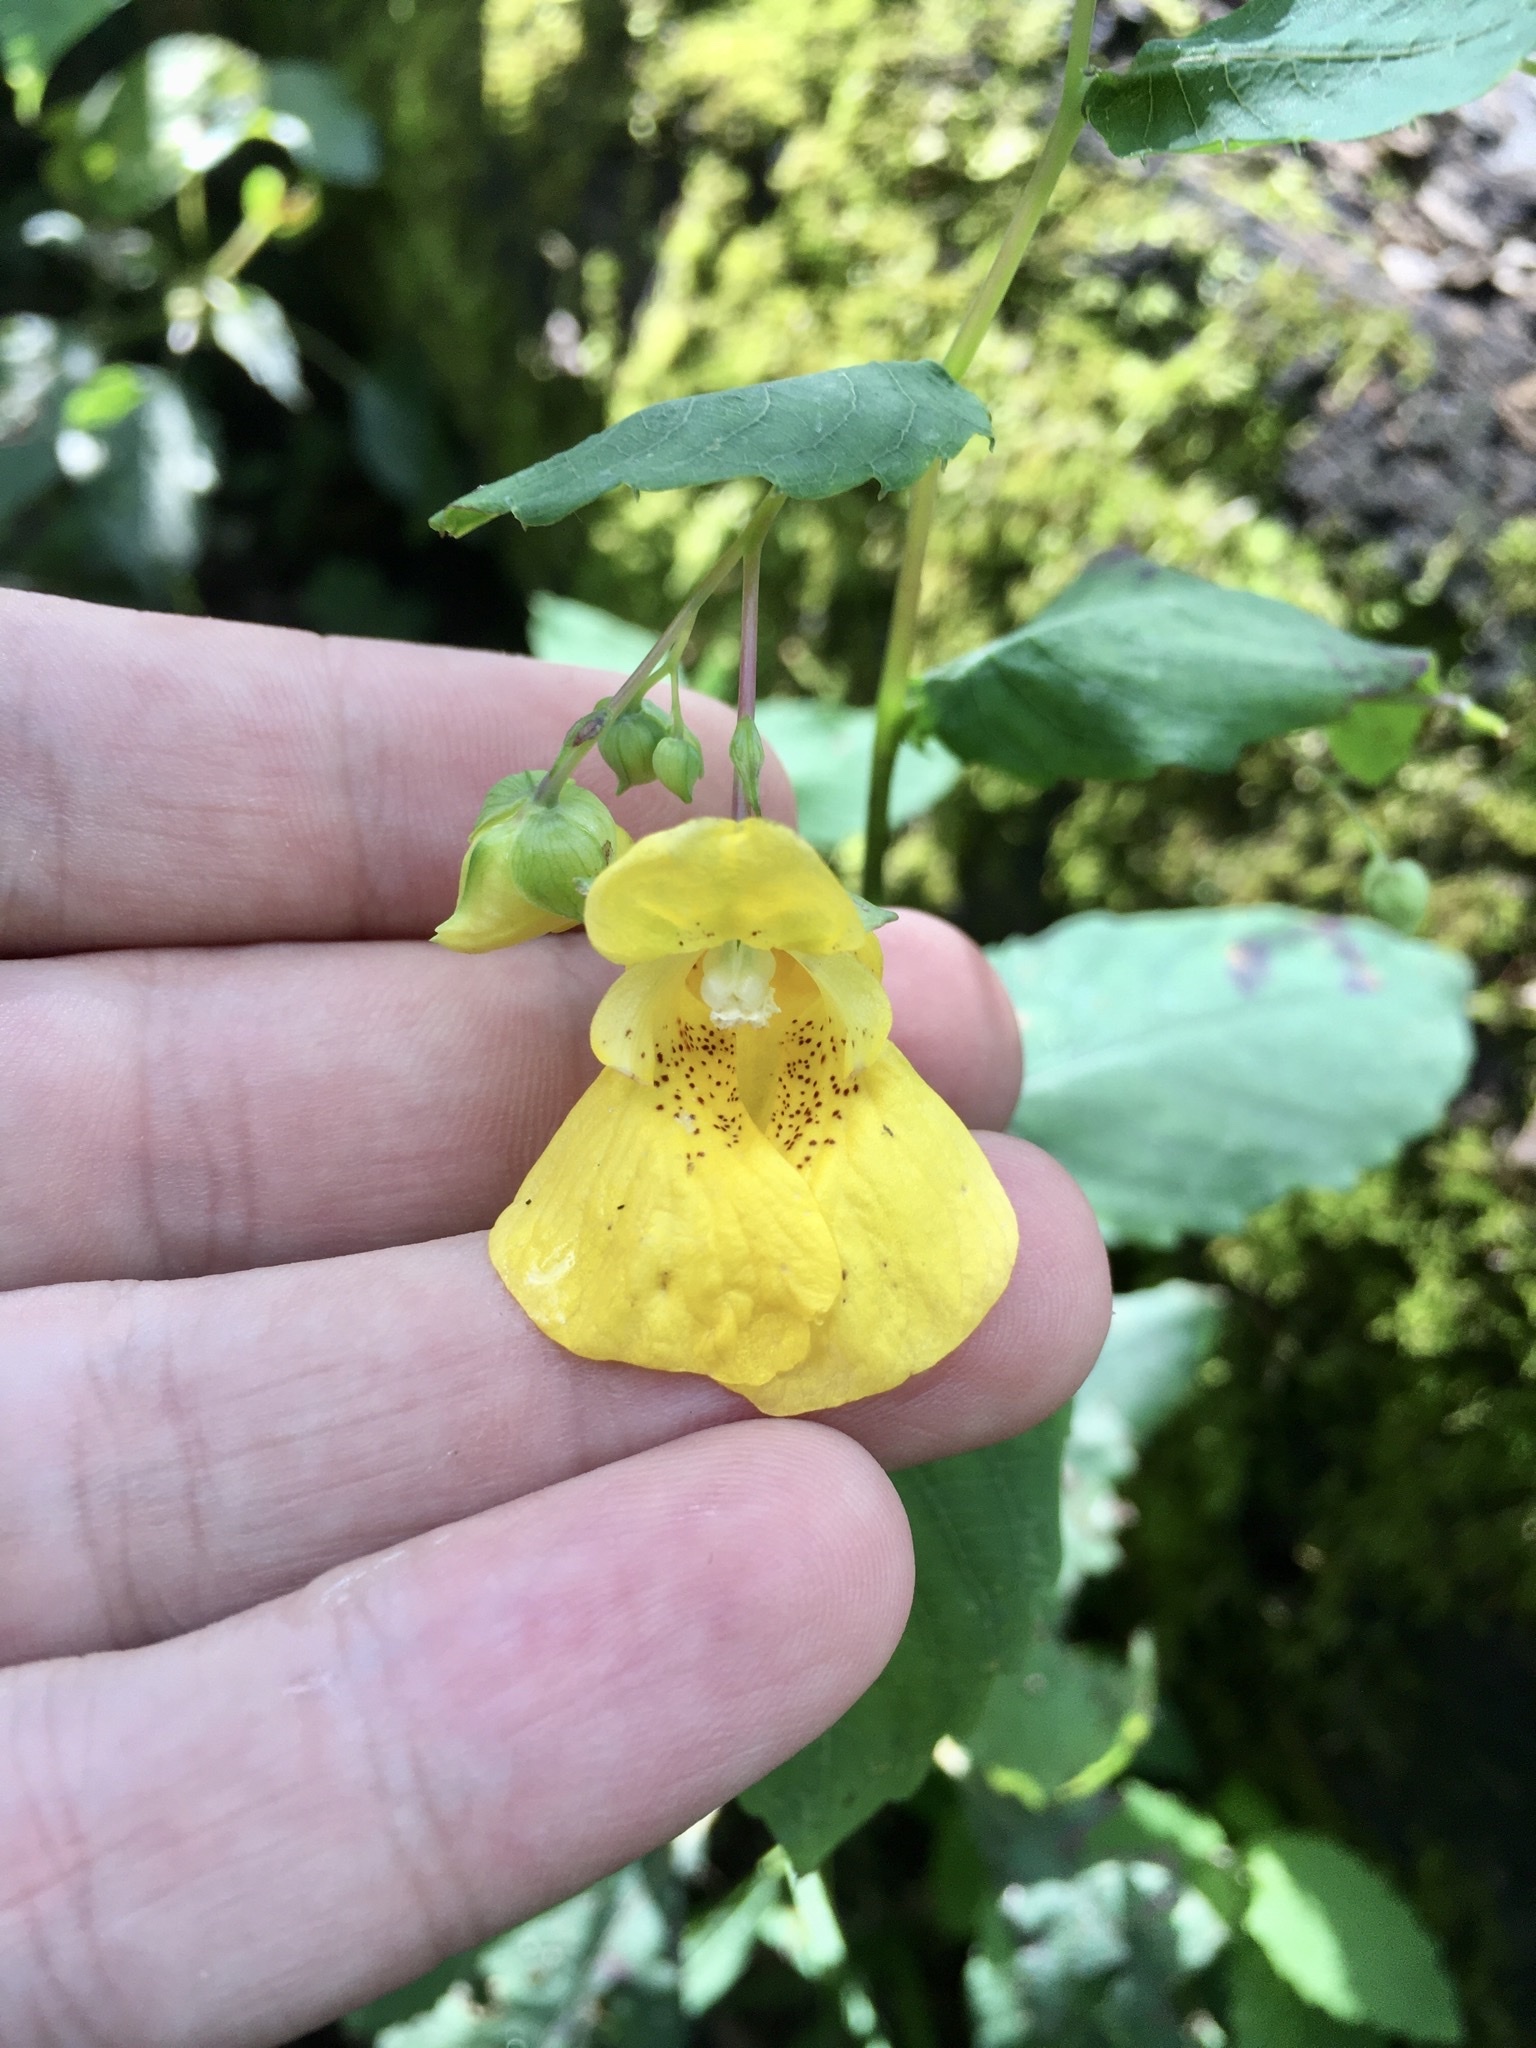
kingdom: Plantae
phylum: Tracheophyta
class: Magnoliopsida
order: Ericales
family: Balsaminaceae
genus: Impatiens
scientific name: Impatiens pallida
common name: Pale snapweed
